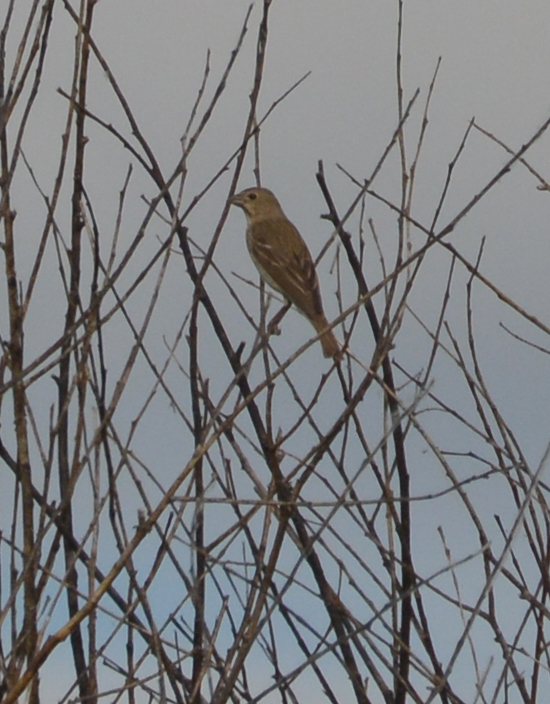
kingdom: Animalia
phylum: Chordata
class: Aves
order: Passeriformes
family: Fringillidae
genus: Carpodacus
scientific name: Carpodacus erythrinus
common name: Common rosefinch
